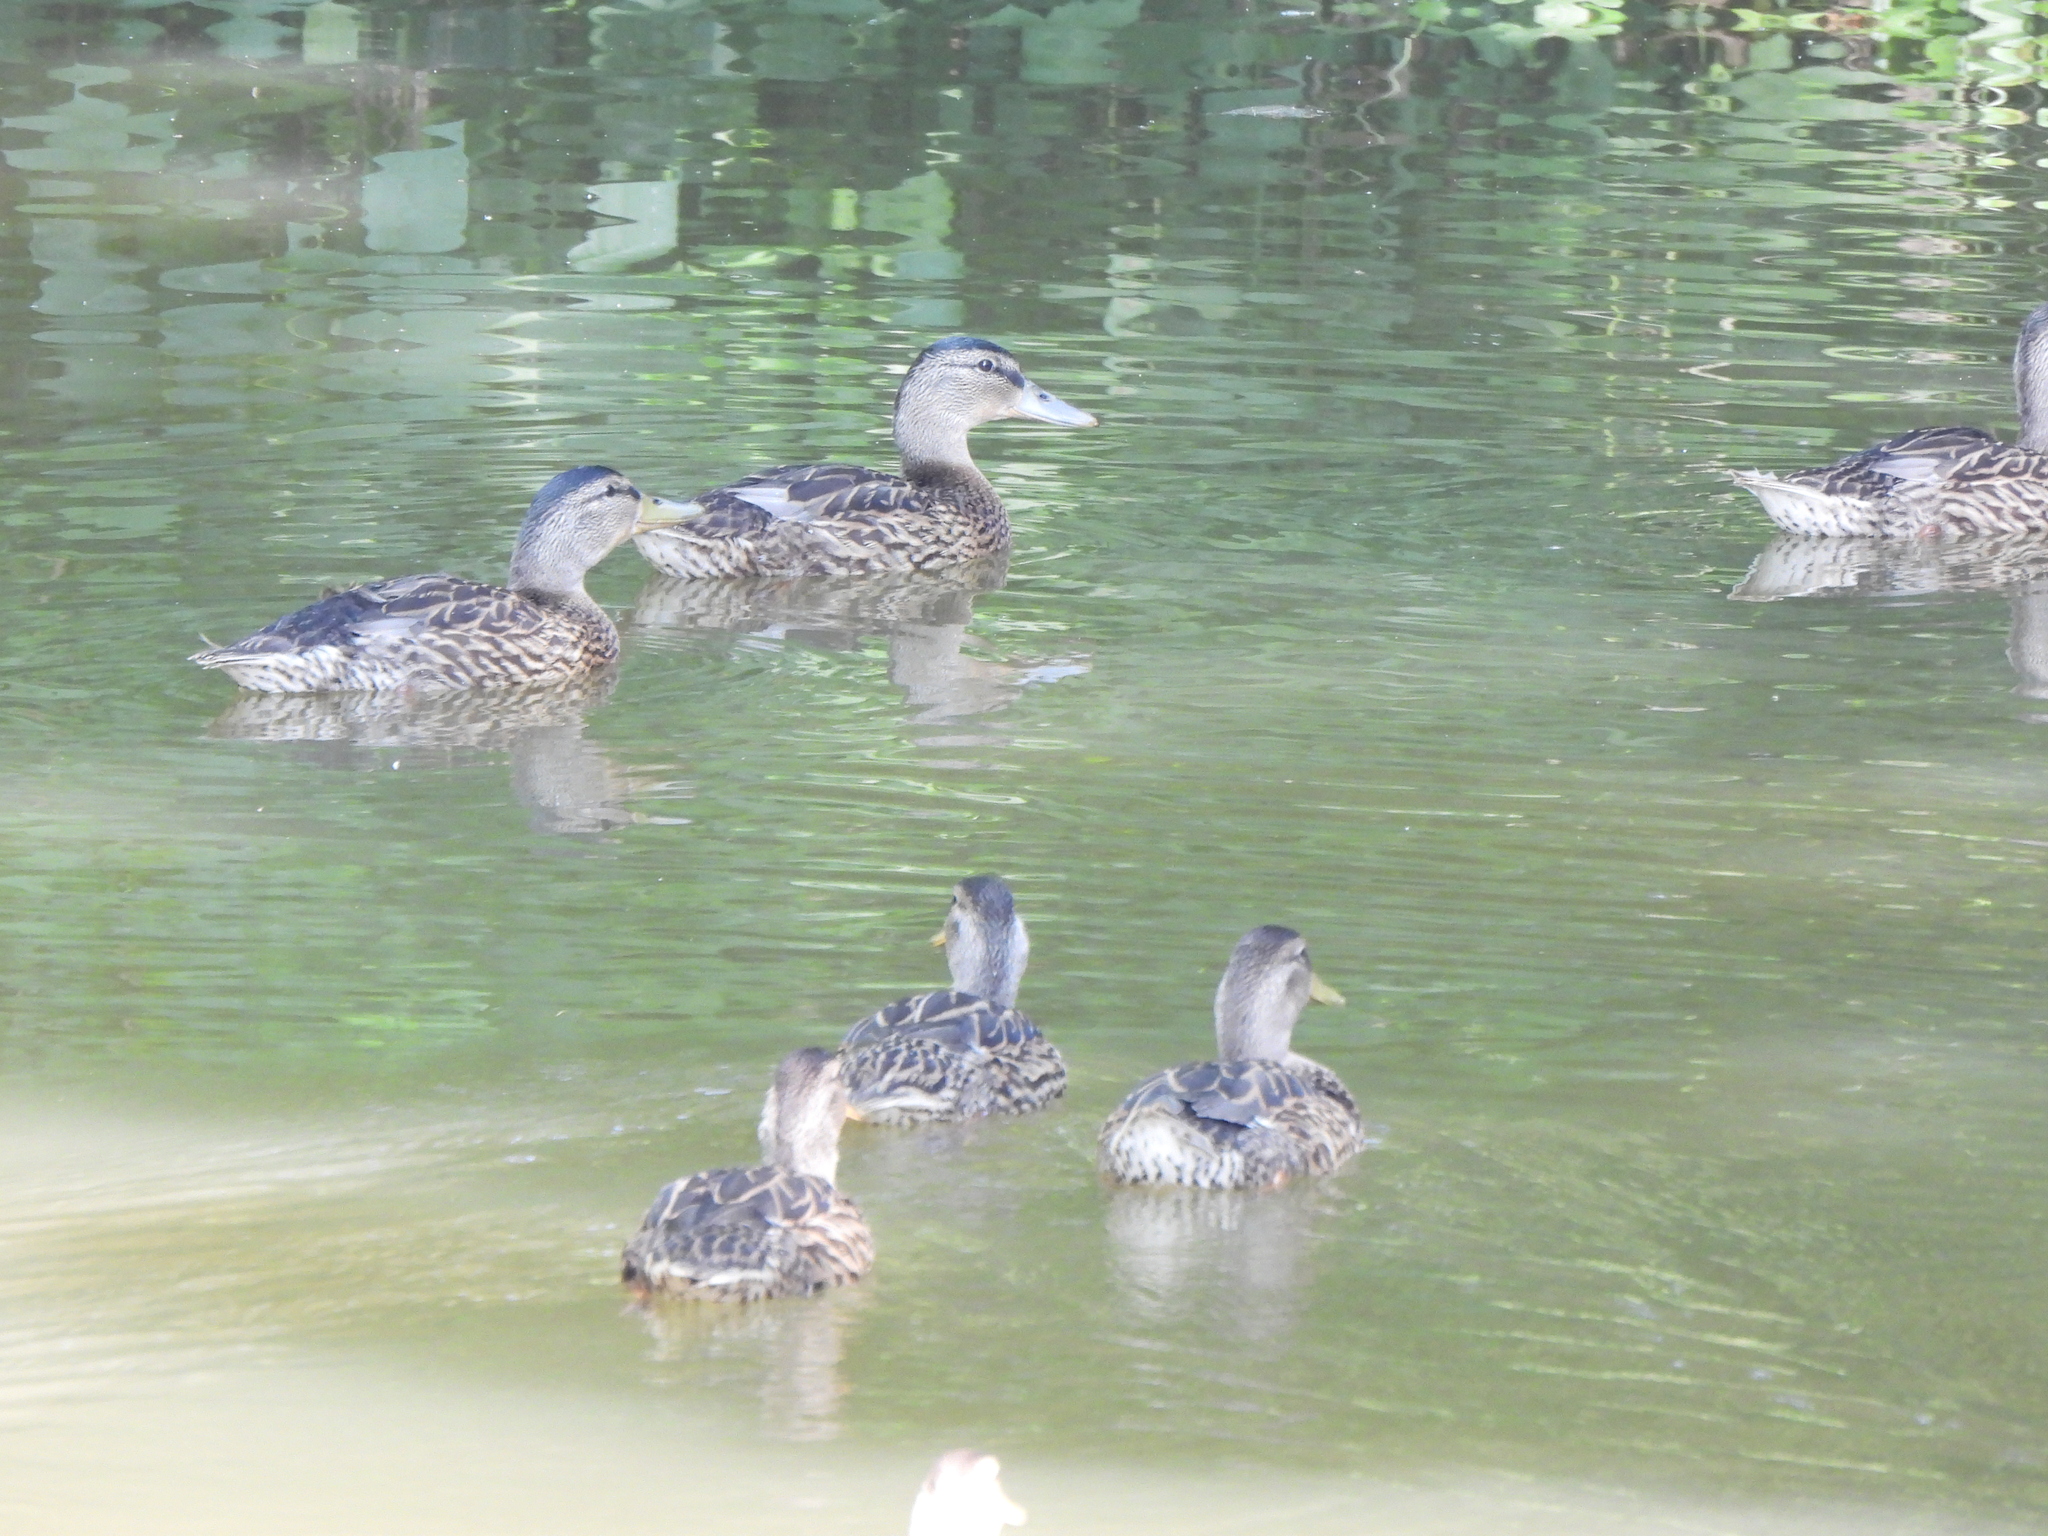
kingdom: Animalia
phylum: Chordata
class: Aves
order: Anseriformes
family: Anatidae
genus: Anas
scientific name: Anas platyrhynchos
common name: Mallard
